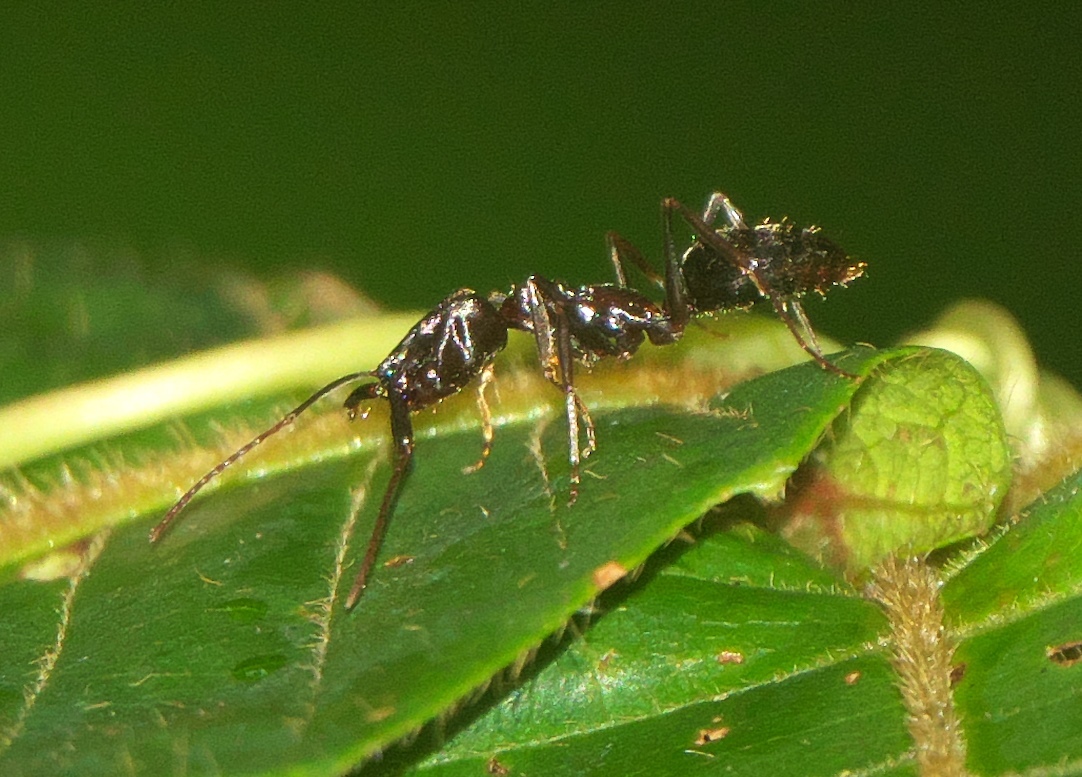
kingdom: Animalia
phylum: Arthropoda
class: Insecta
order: Hymenoptera
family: Formicidae
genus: Odontomachus
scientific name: Odontomachus simillimus
